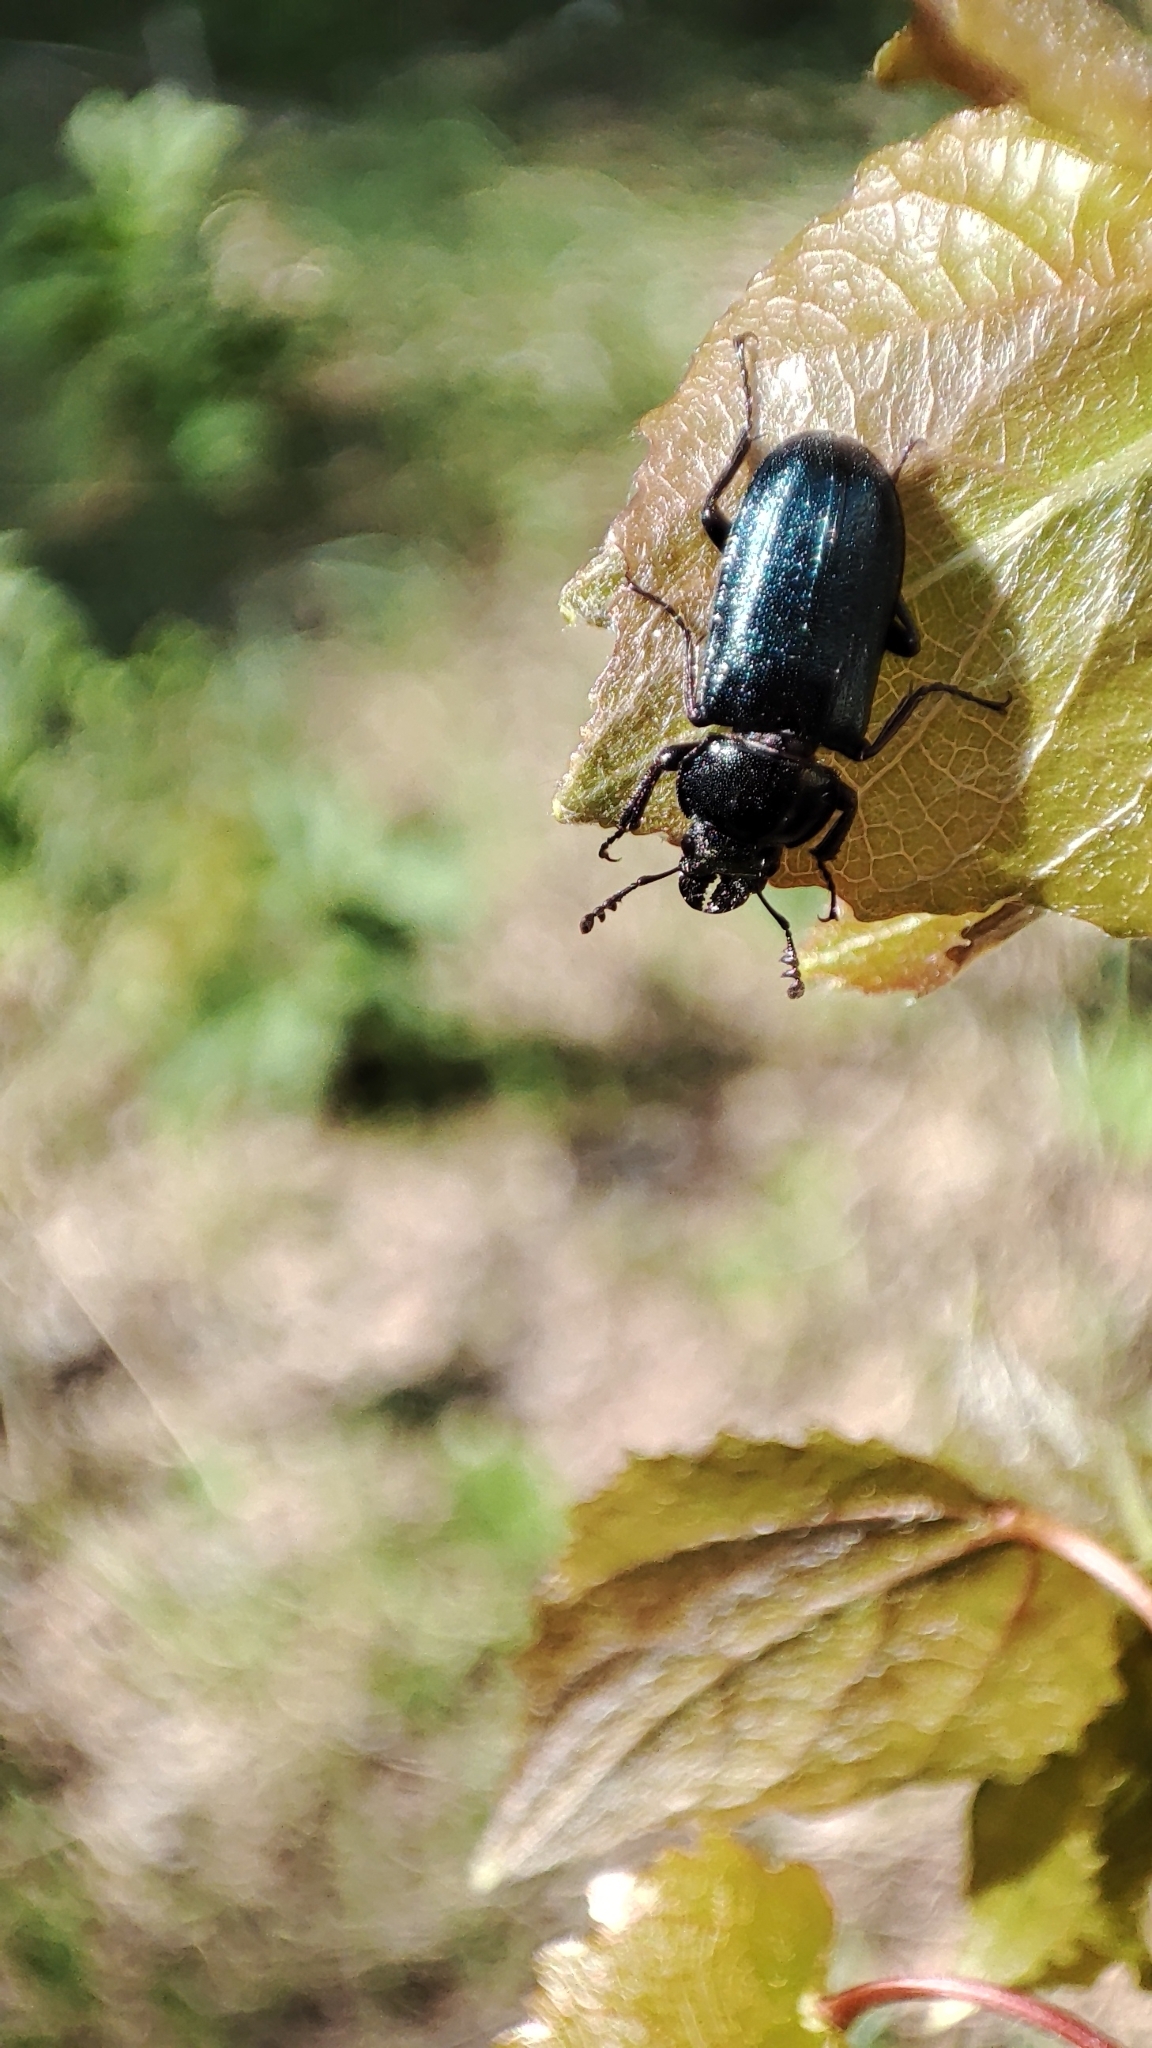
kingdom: Animalia
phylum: Arthropoda
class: Insecta
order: Coleoptera
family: Lucanidae
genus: Platycerus
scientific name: Platycerus caprea
